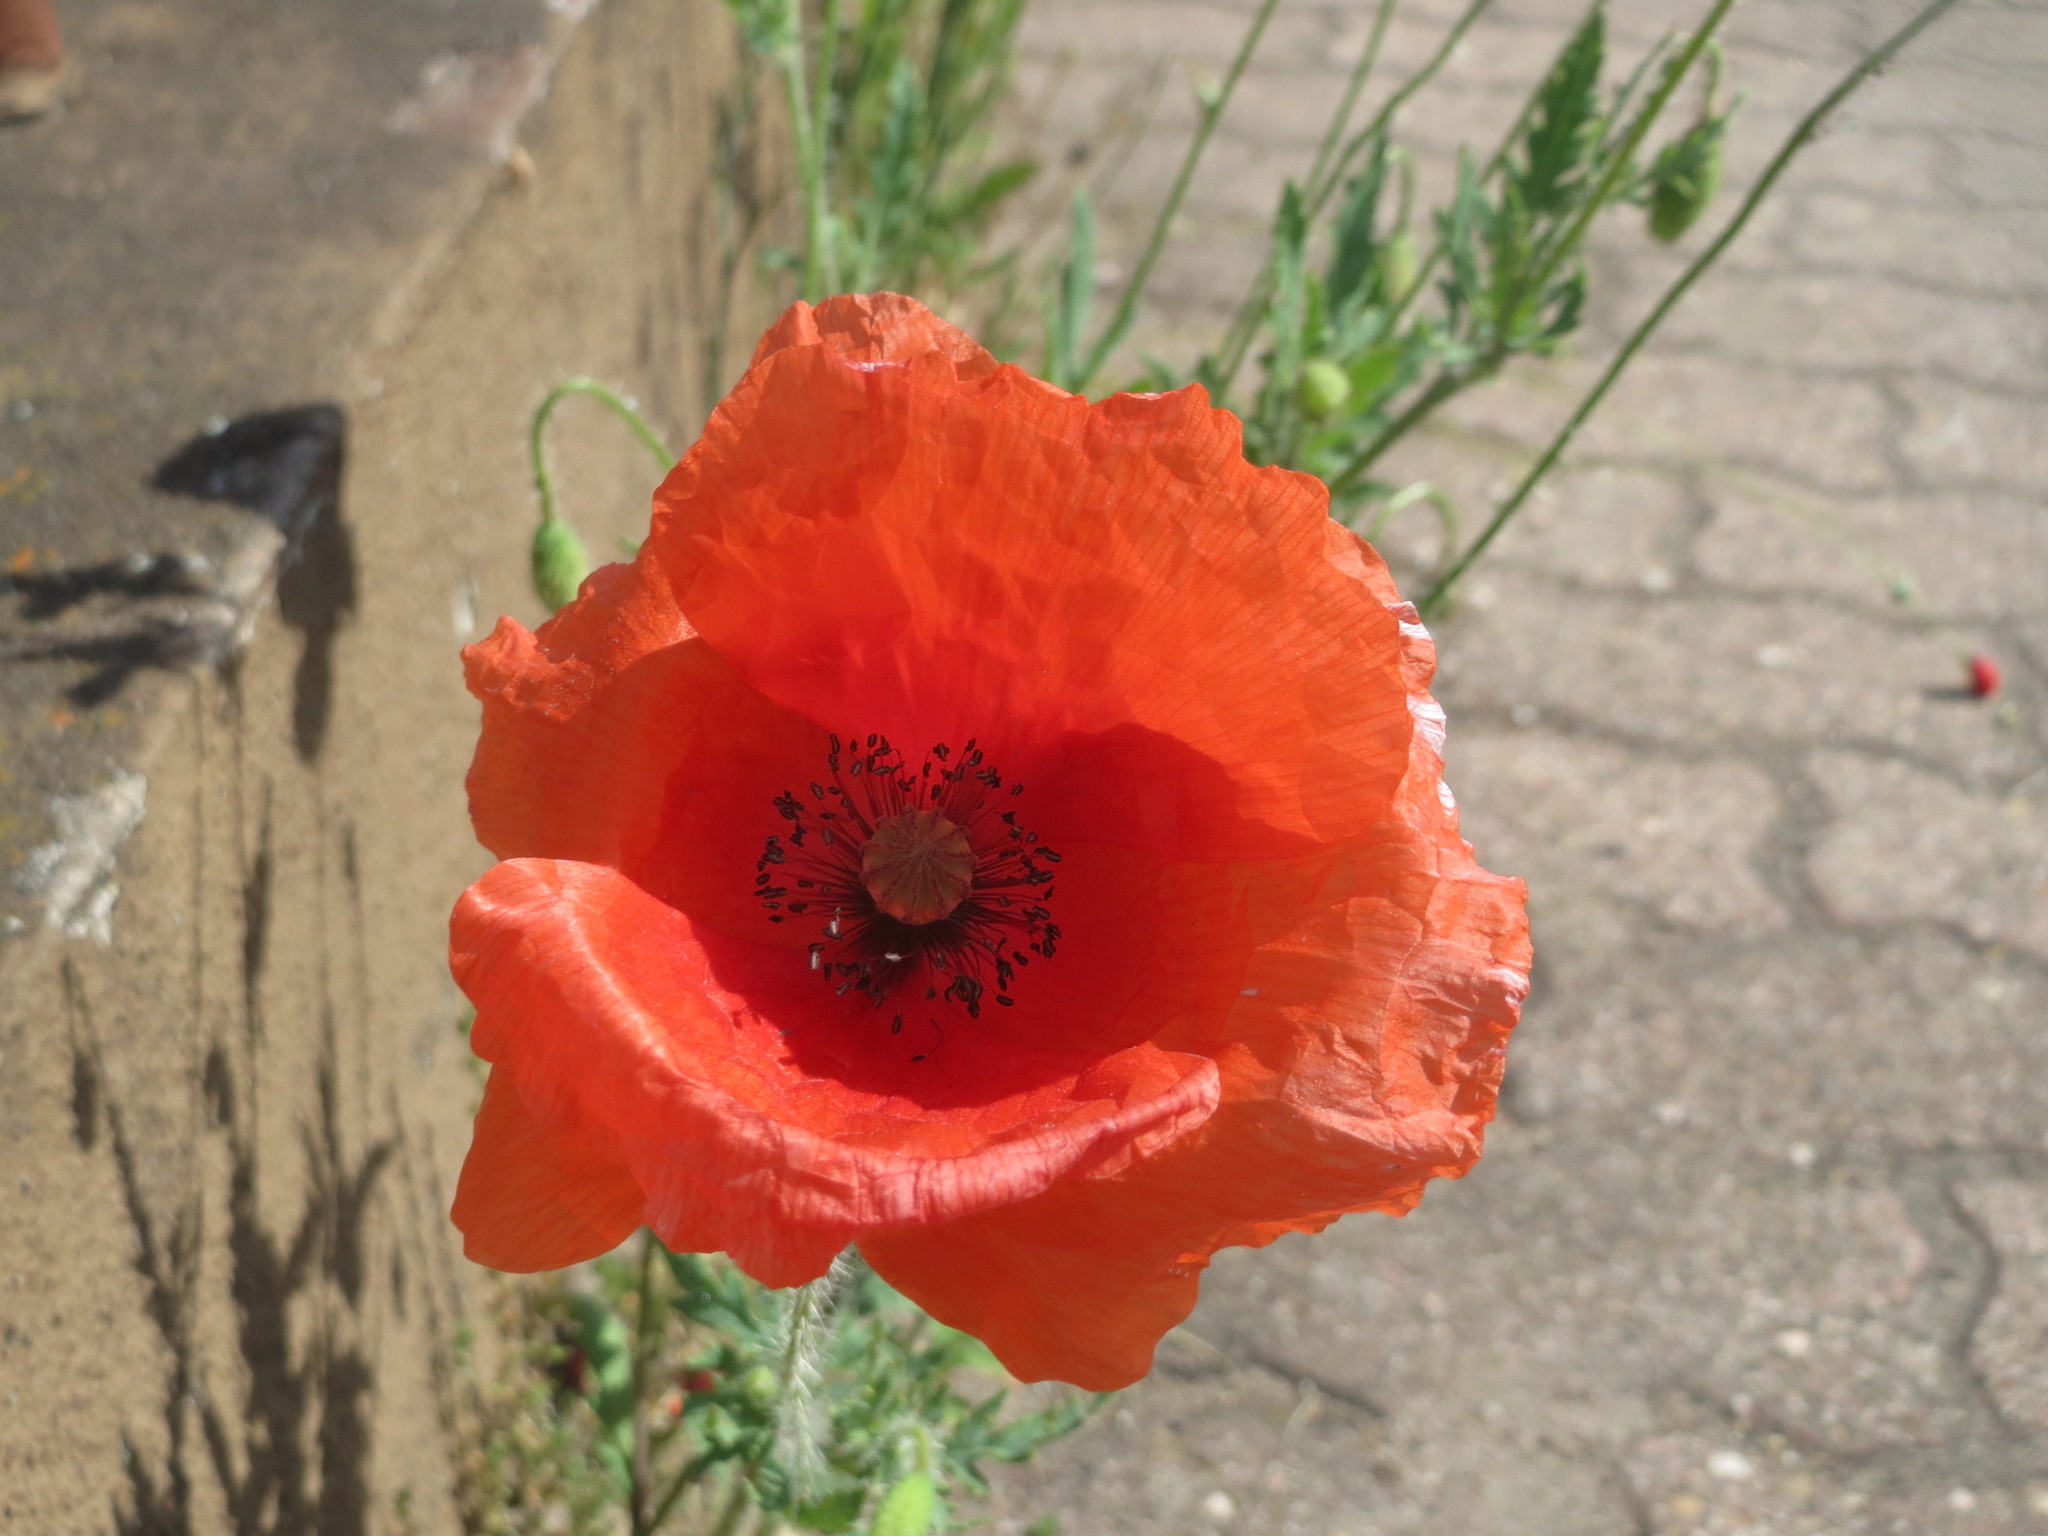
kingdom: Plantae
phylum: Tracheophyta
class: Magnoliopsida
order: Ranunculales
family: Papaveraceae
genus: Papaver
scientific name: Papaver rhoeas
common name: Corn poppy
